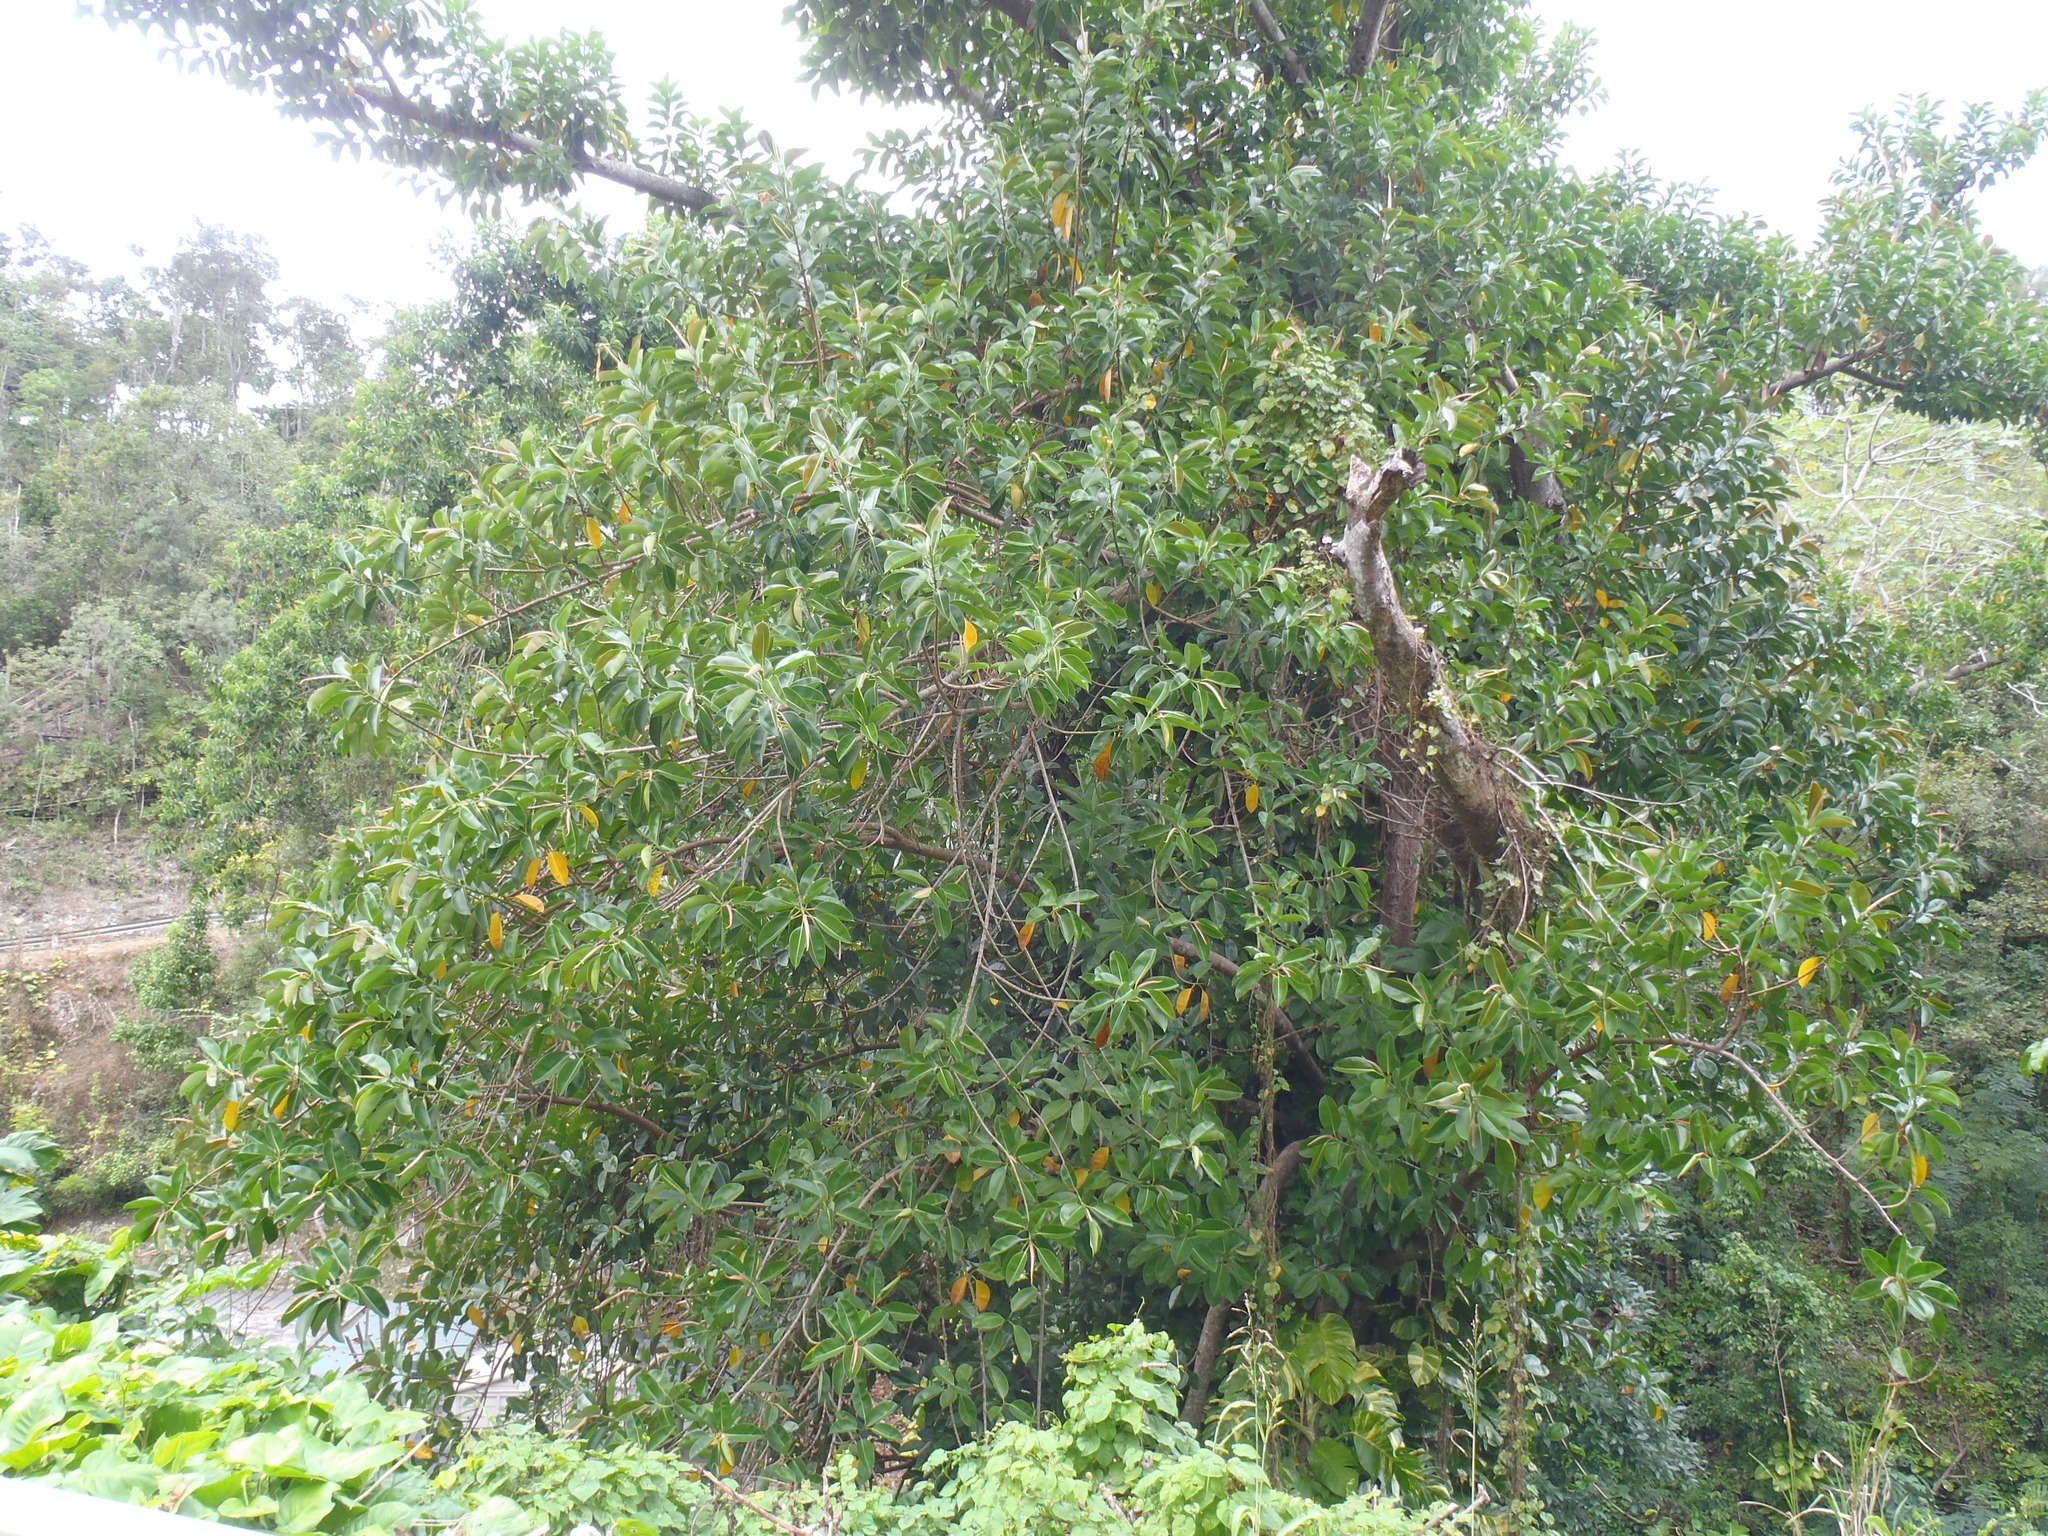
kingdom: Plantae
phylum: Tracheophyta
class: Magnoliopsida
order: Rosales
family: Moraceae
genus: Ficus
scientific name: Ficus elastica
